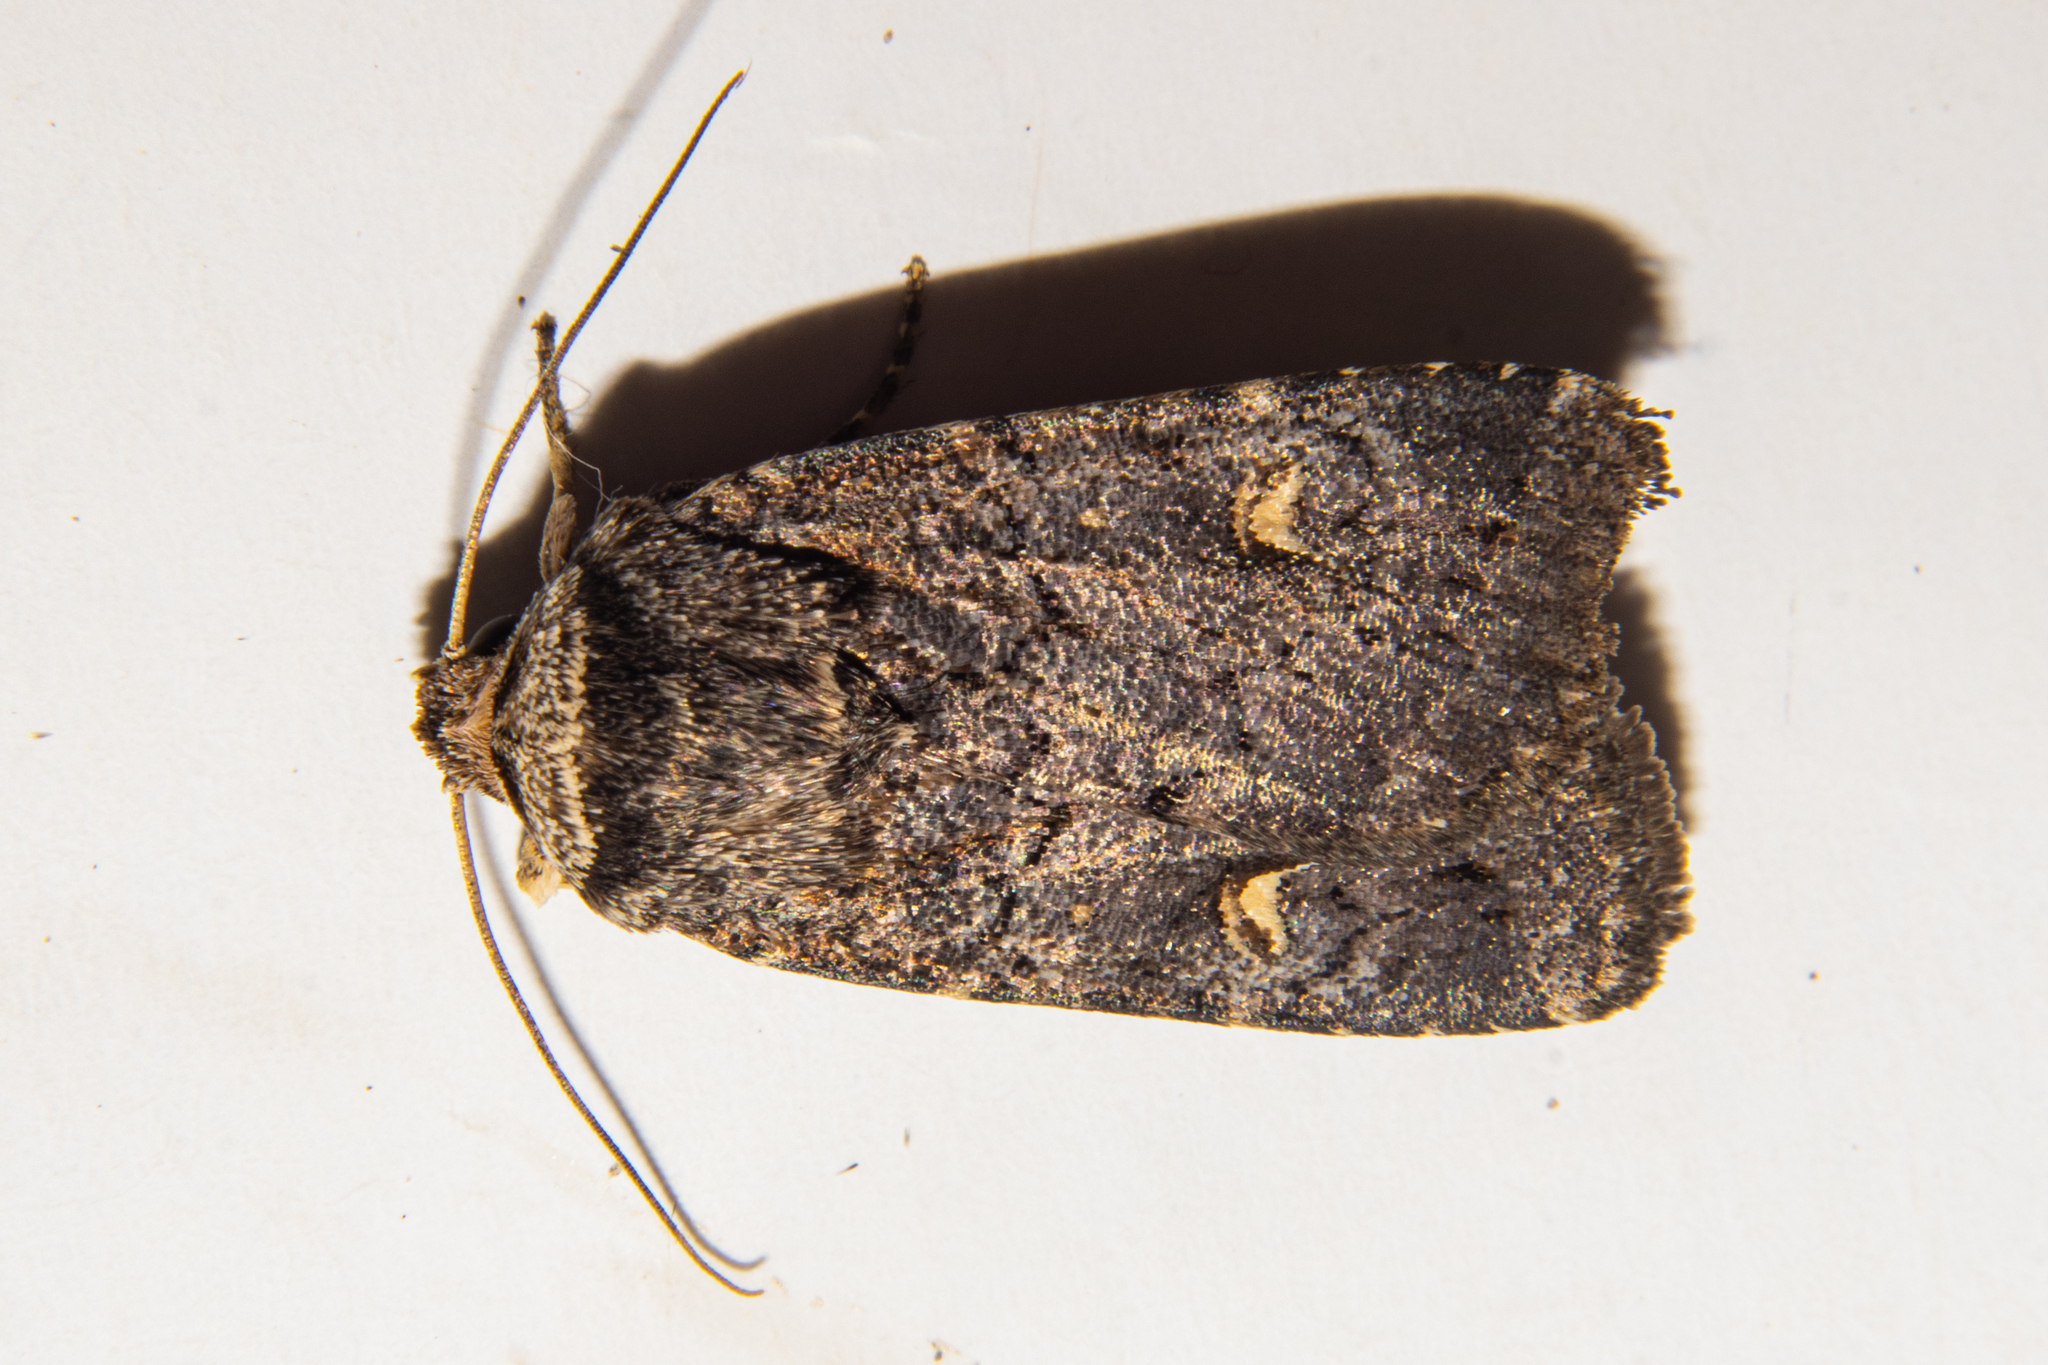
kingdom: Animalia
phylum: Arthropoda
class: Insecta
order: Lepidoptera
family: Noctuidae
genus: Proteuxoa
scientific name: Proteuxoa tetronycha
